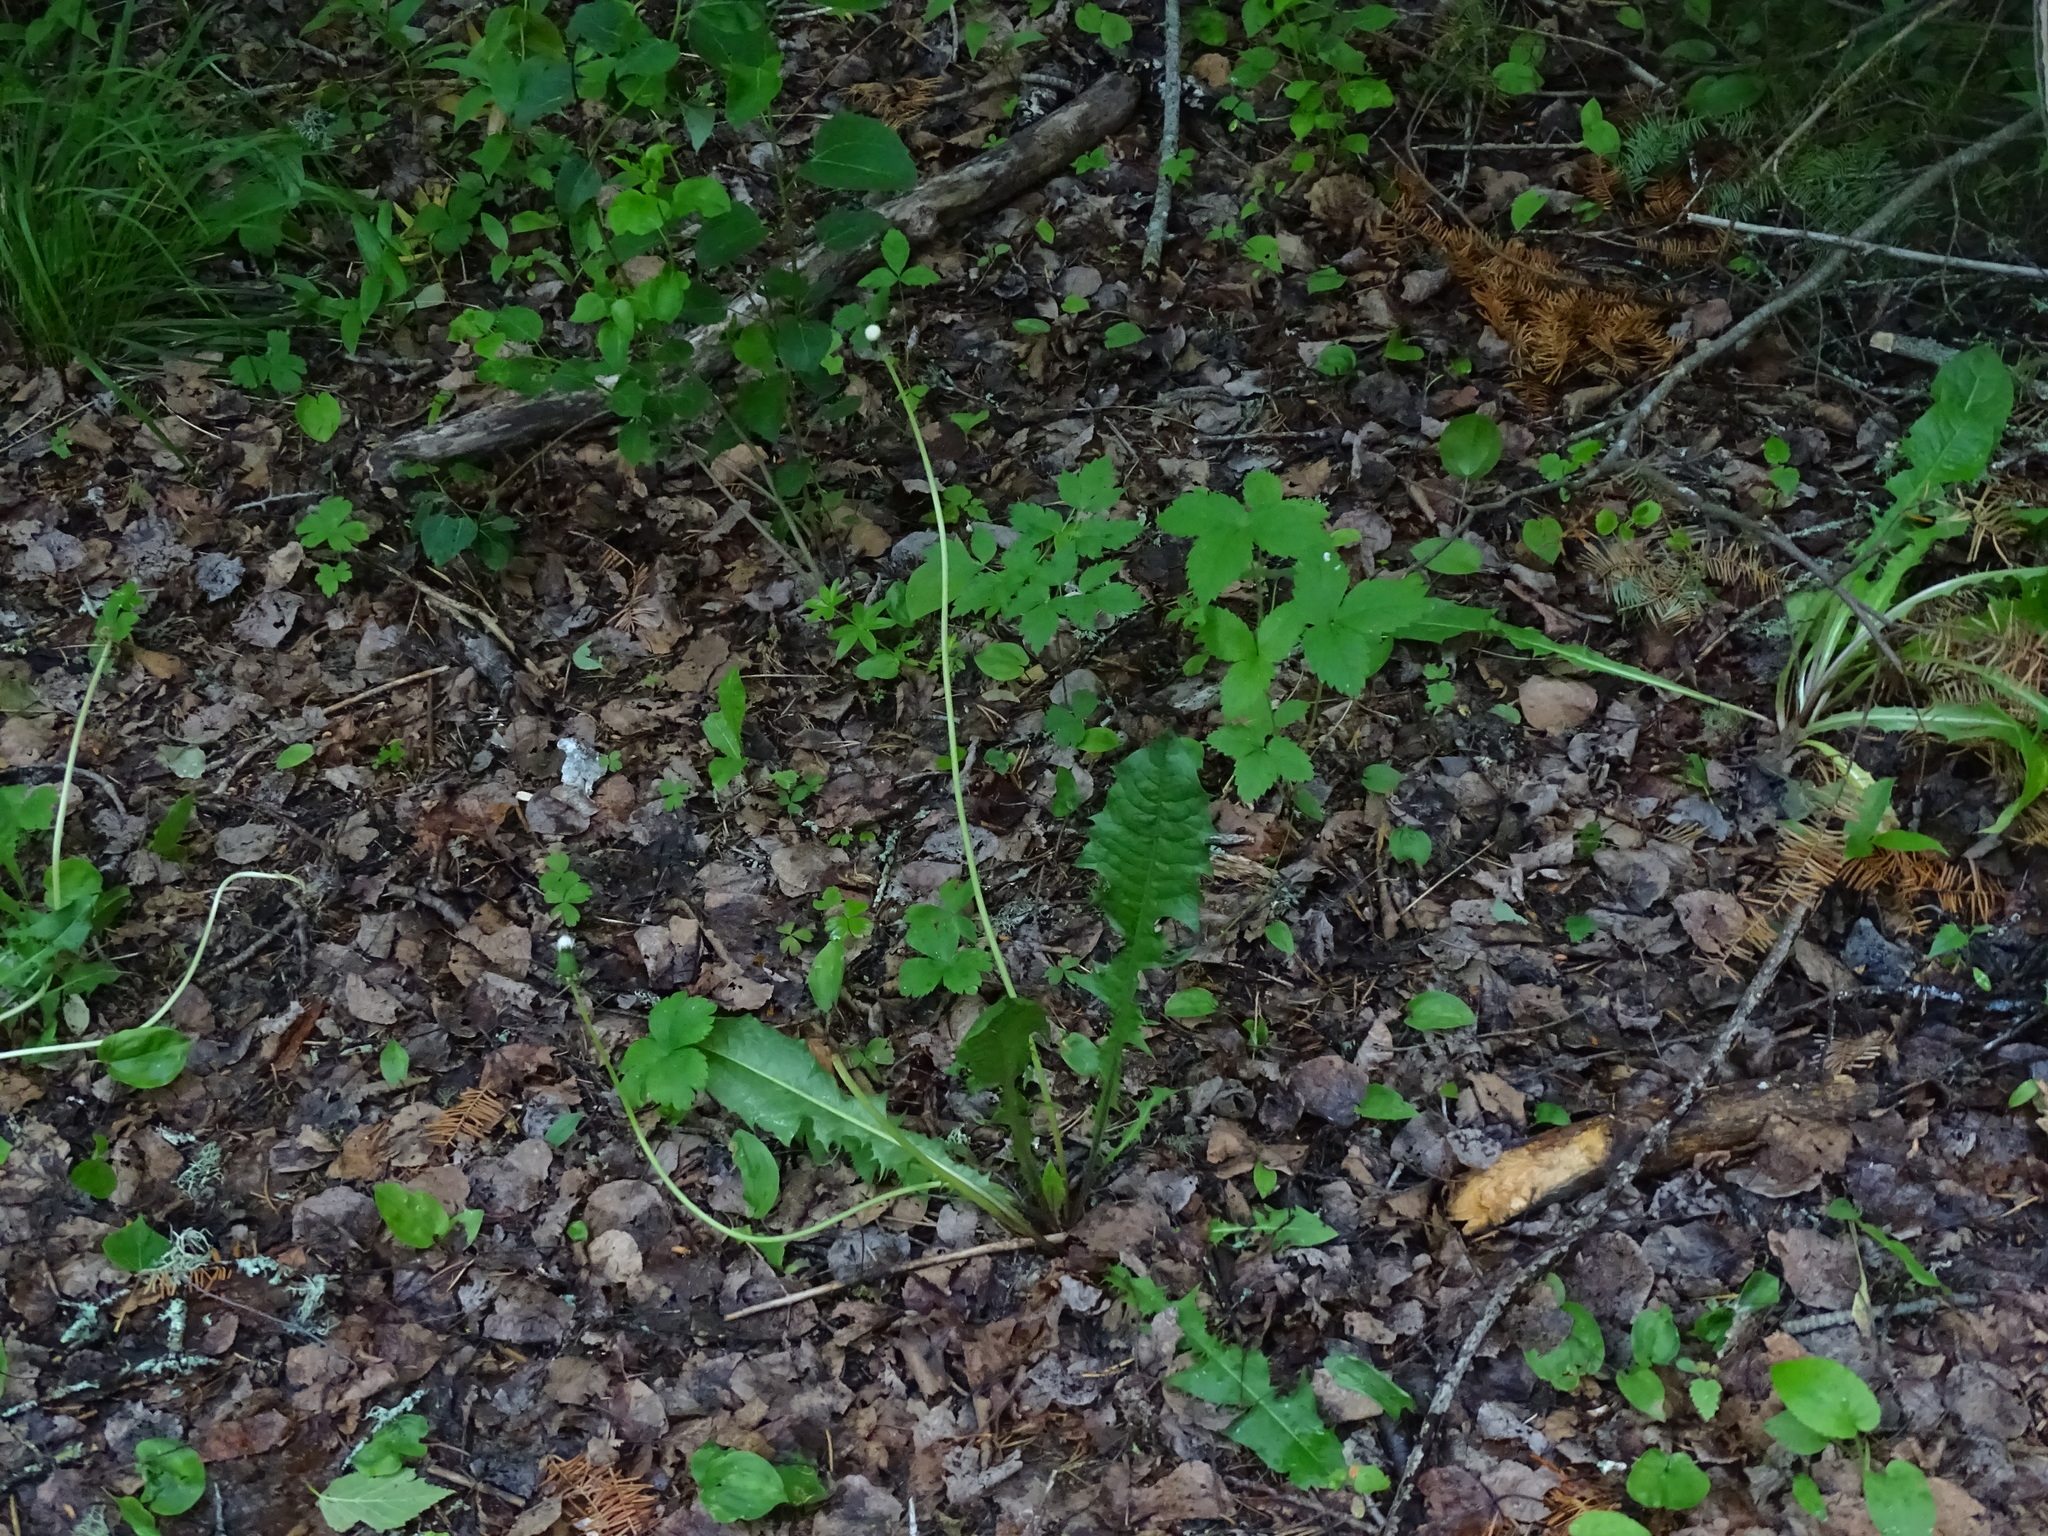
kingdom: Plantae
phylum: Tracheophyta
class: Magnoliopsida
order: Asterales
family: Asteraceae
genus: Taraxacum
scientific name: Taraxacum officinale
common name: Common dandelion
